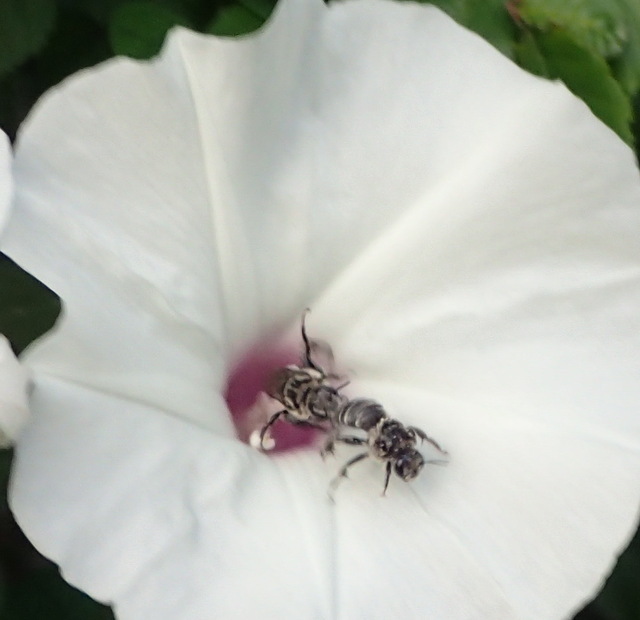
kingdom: Animalia
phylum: Arthropoda
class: Insecta
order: Hymenoptera
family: Apidae
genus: Melitoma
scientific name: Melitoma taurea
